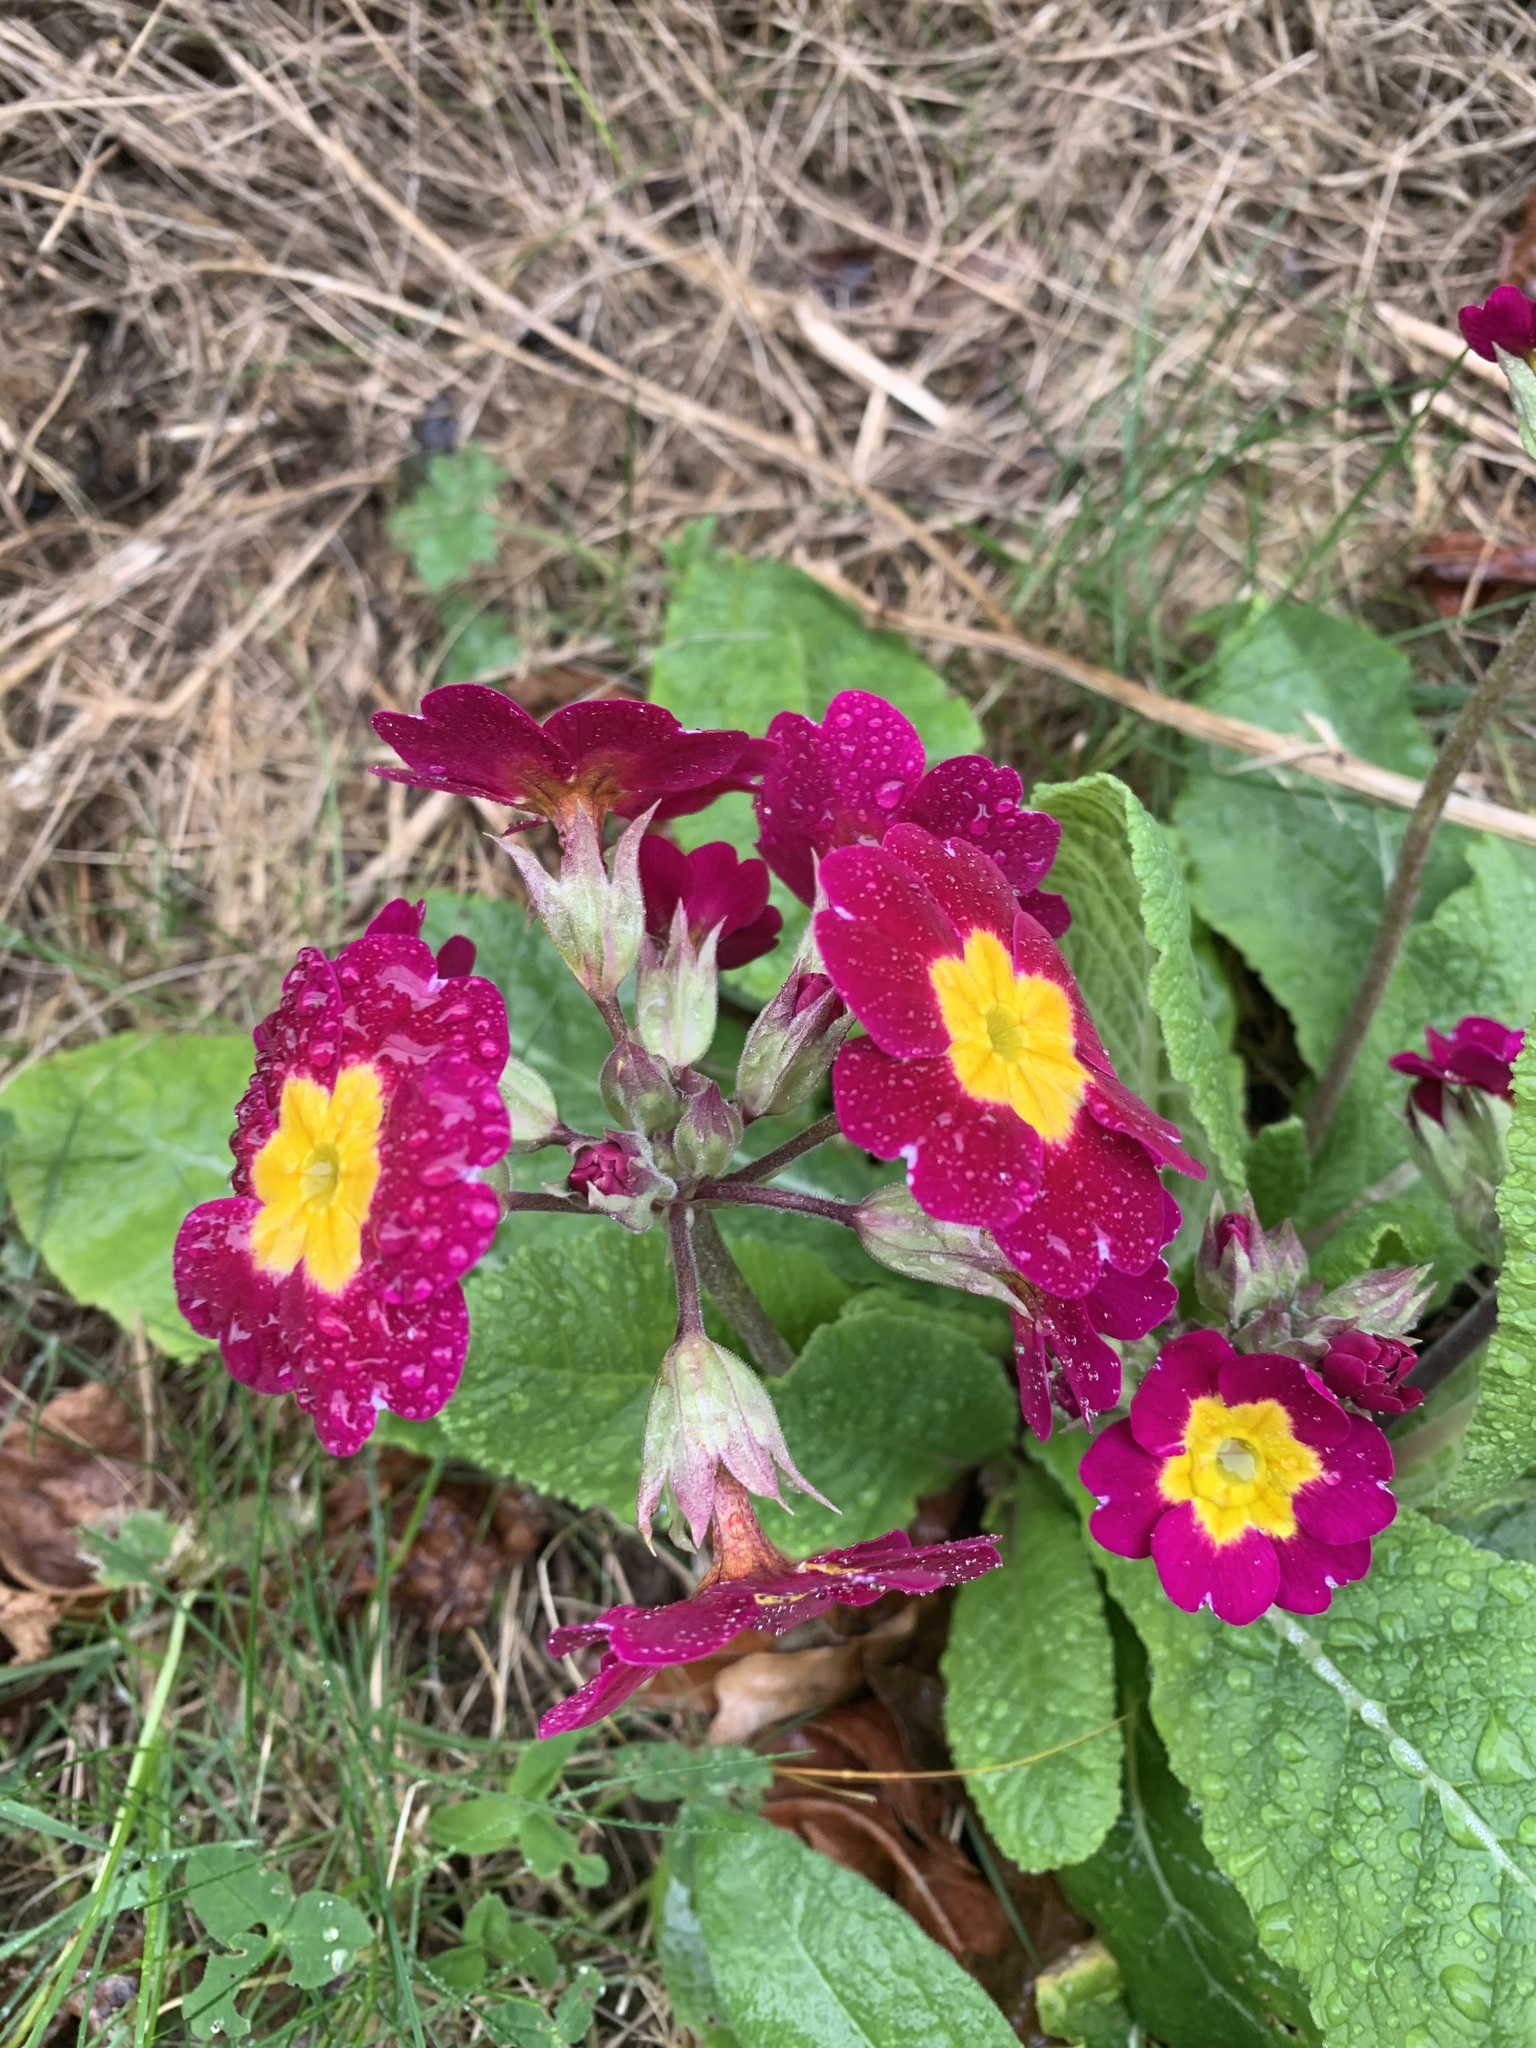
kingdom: Plantae
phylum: Tracheophyta
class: Magnoliopsida
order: Ericales
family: Primulaceae
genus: Primula
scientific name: Primula polyantha
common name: False oxlip
